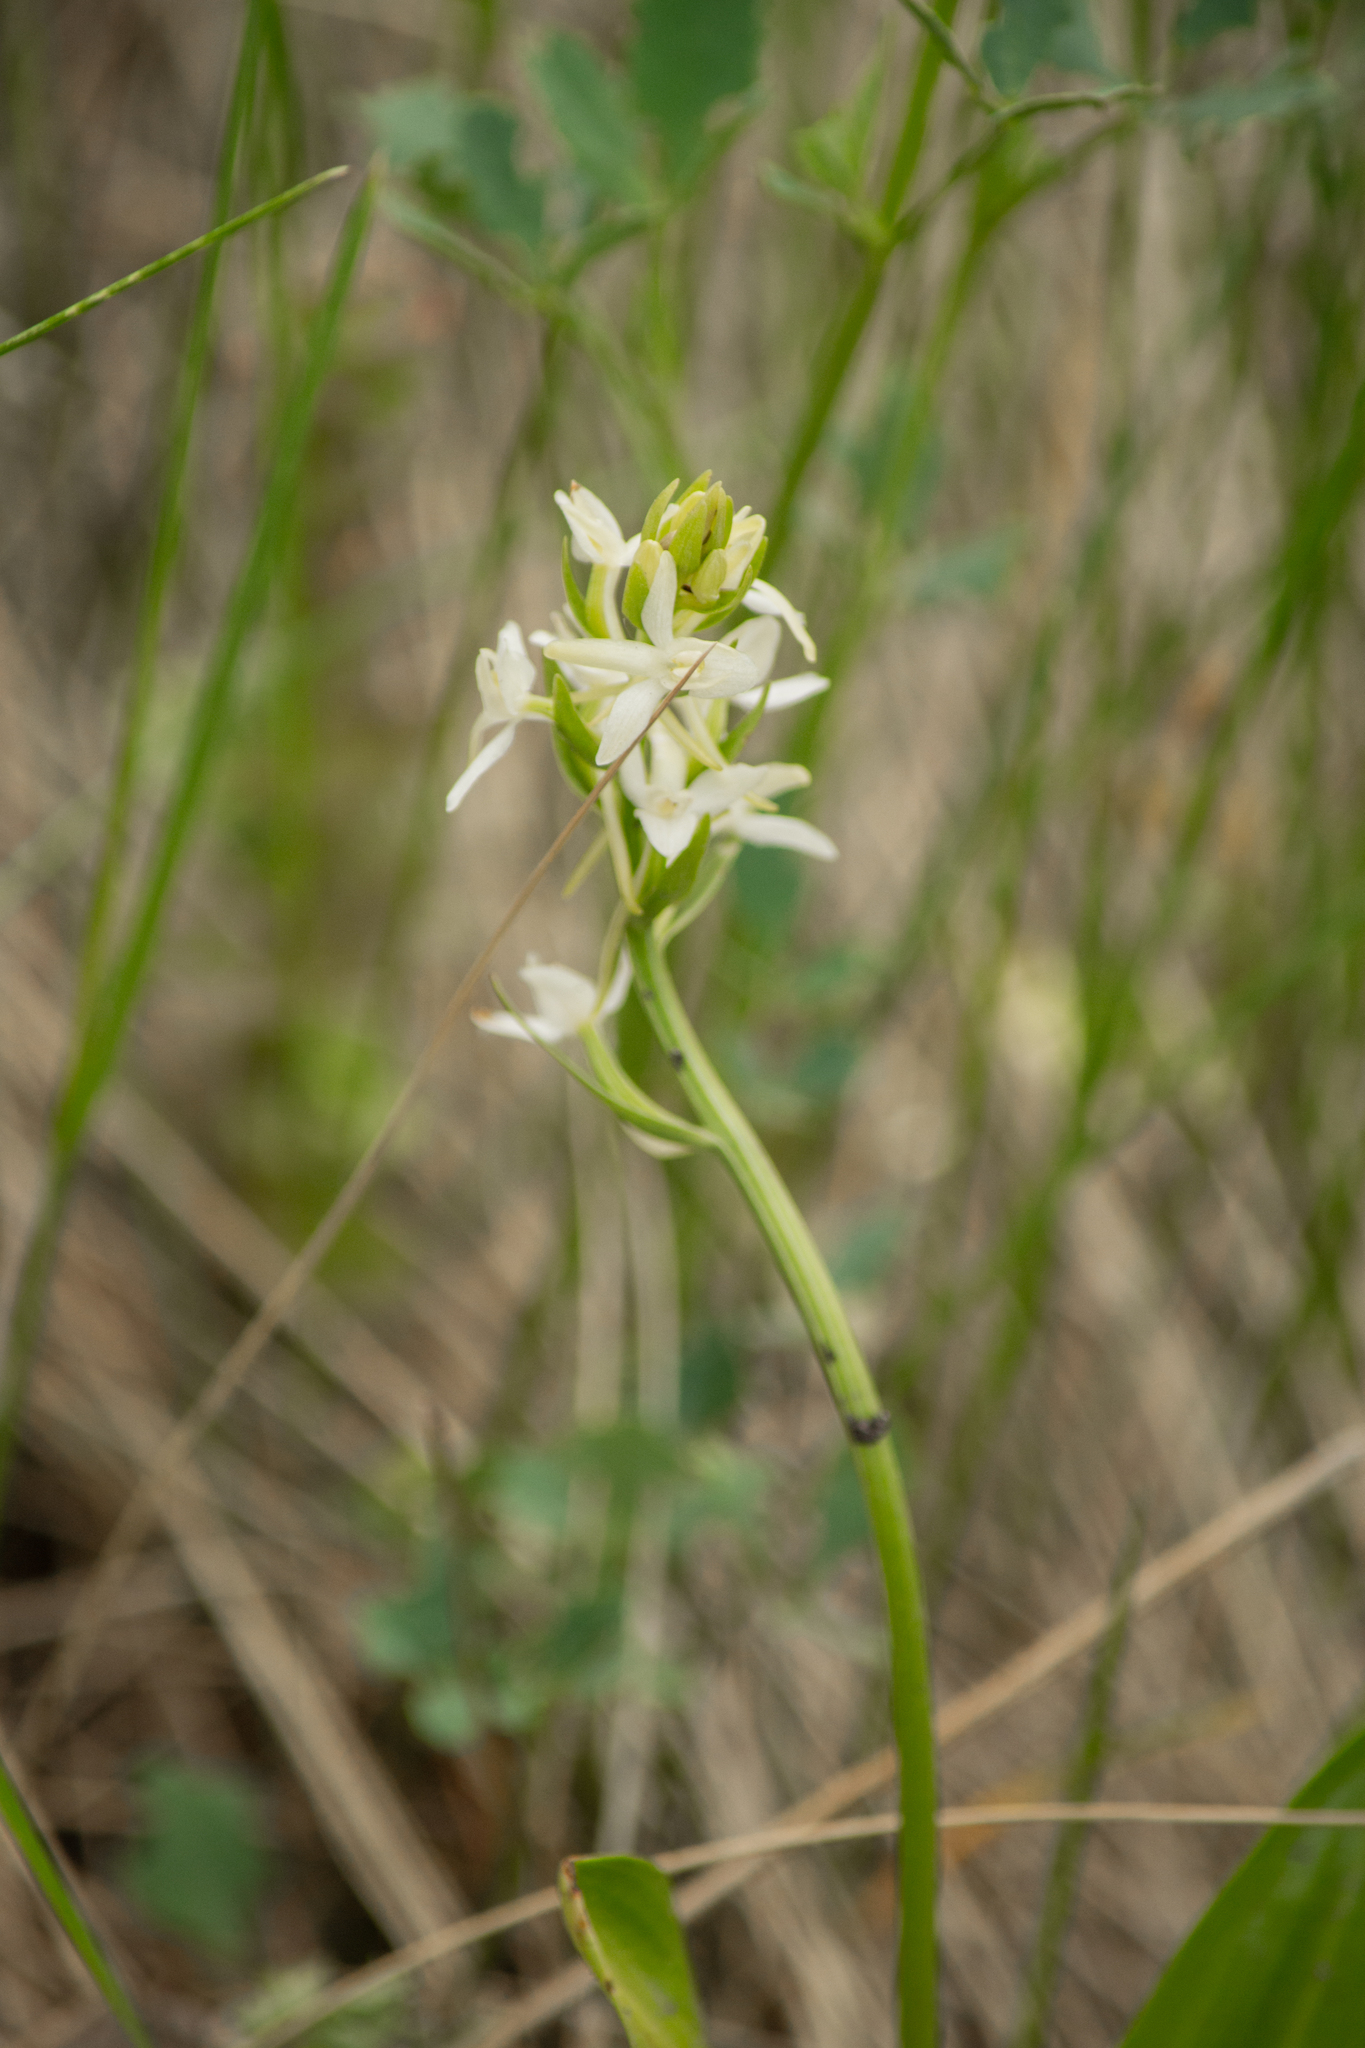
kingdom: Plantae
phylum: Tracheophyta
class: Liliopsida
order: Asparagales
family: Orchidaceae
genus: Platanthera
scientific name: Platanthera bifolia
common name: Lesser butterfly-orchid
